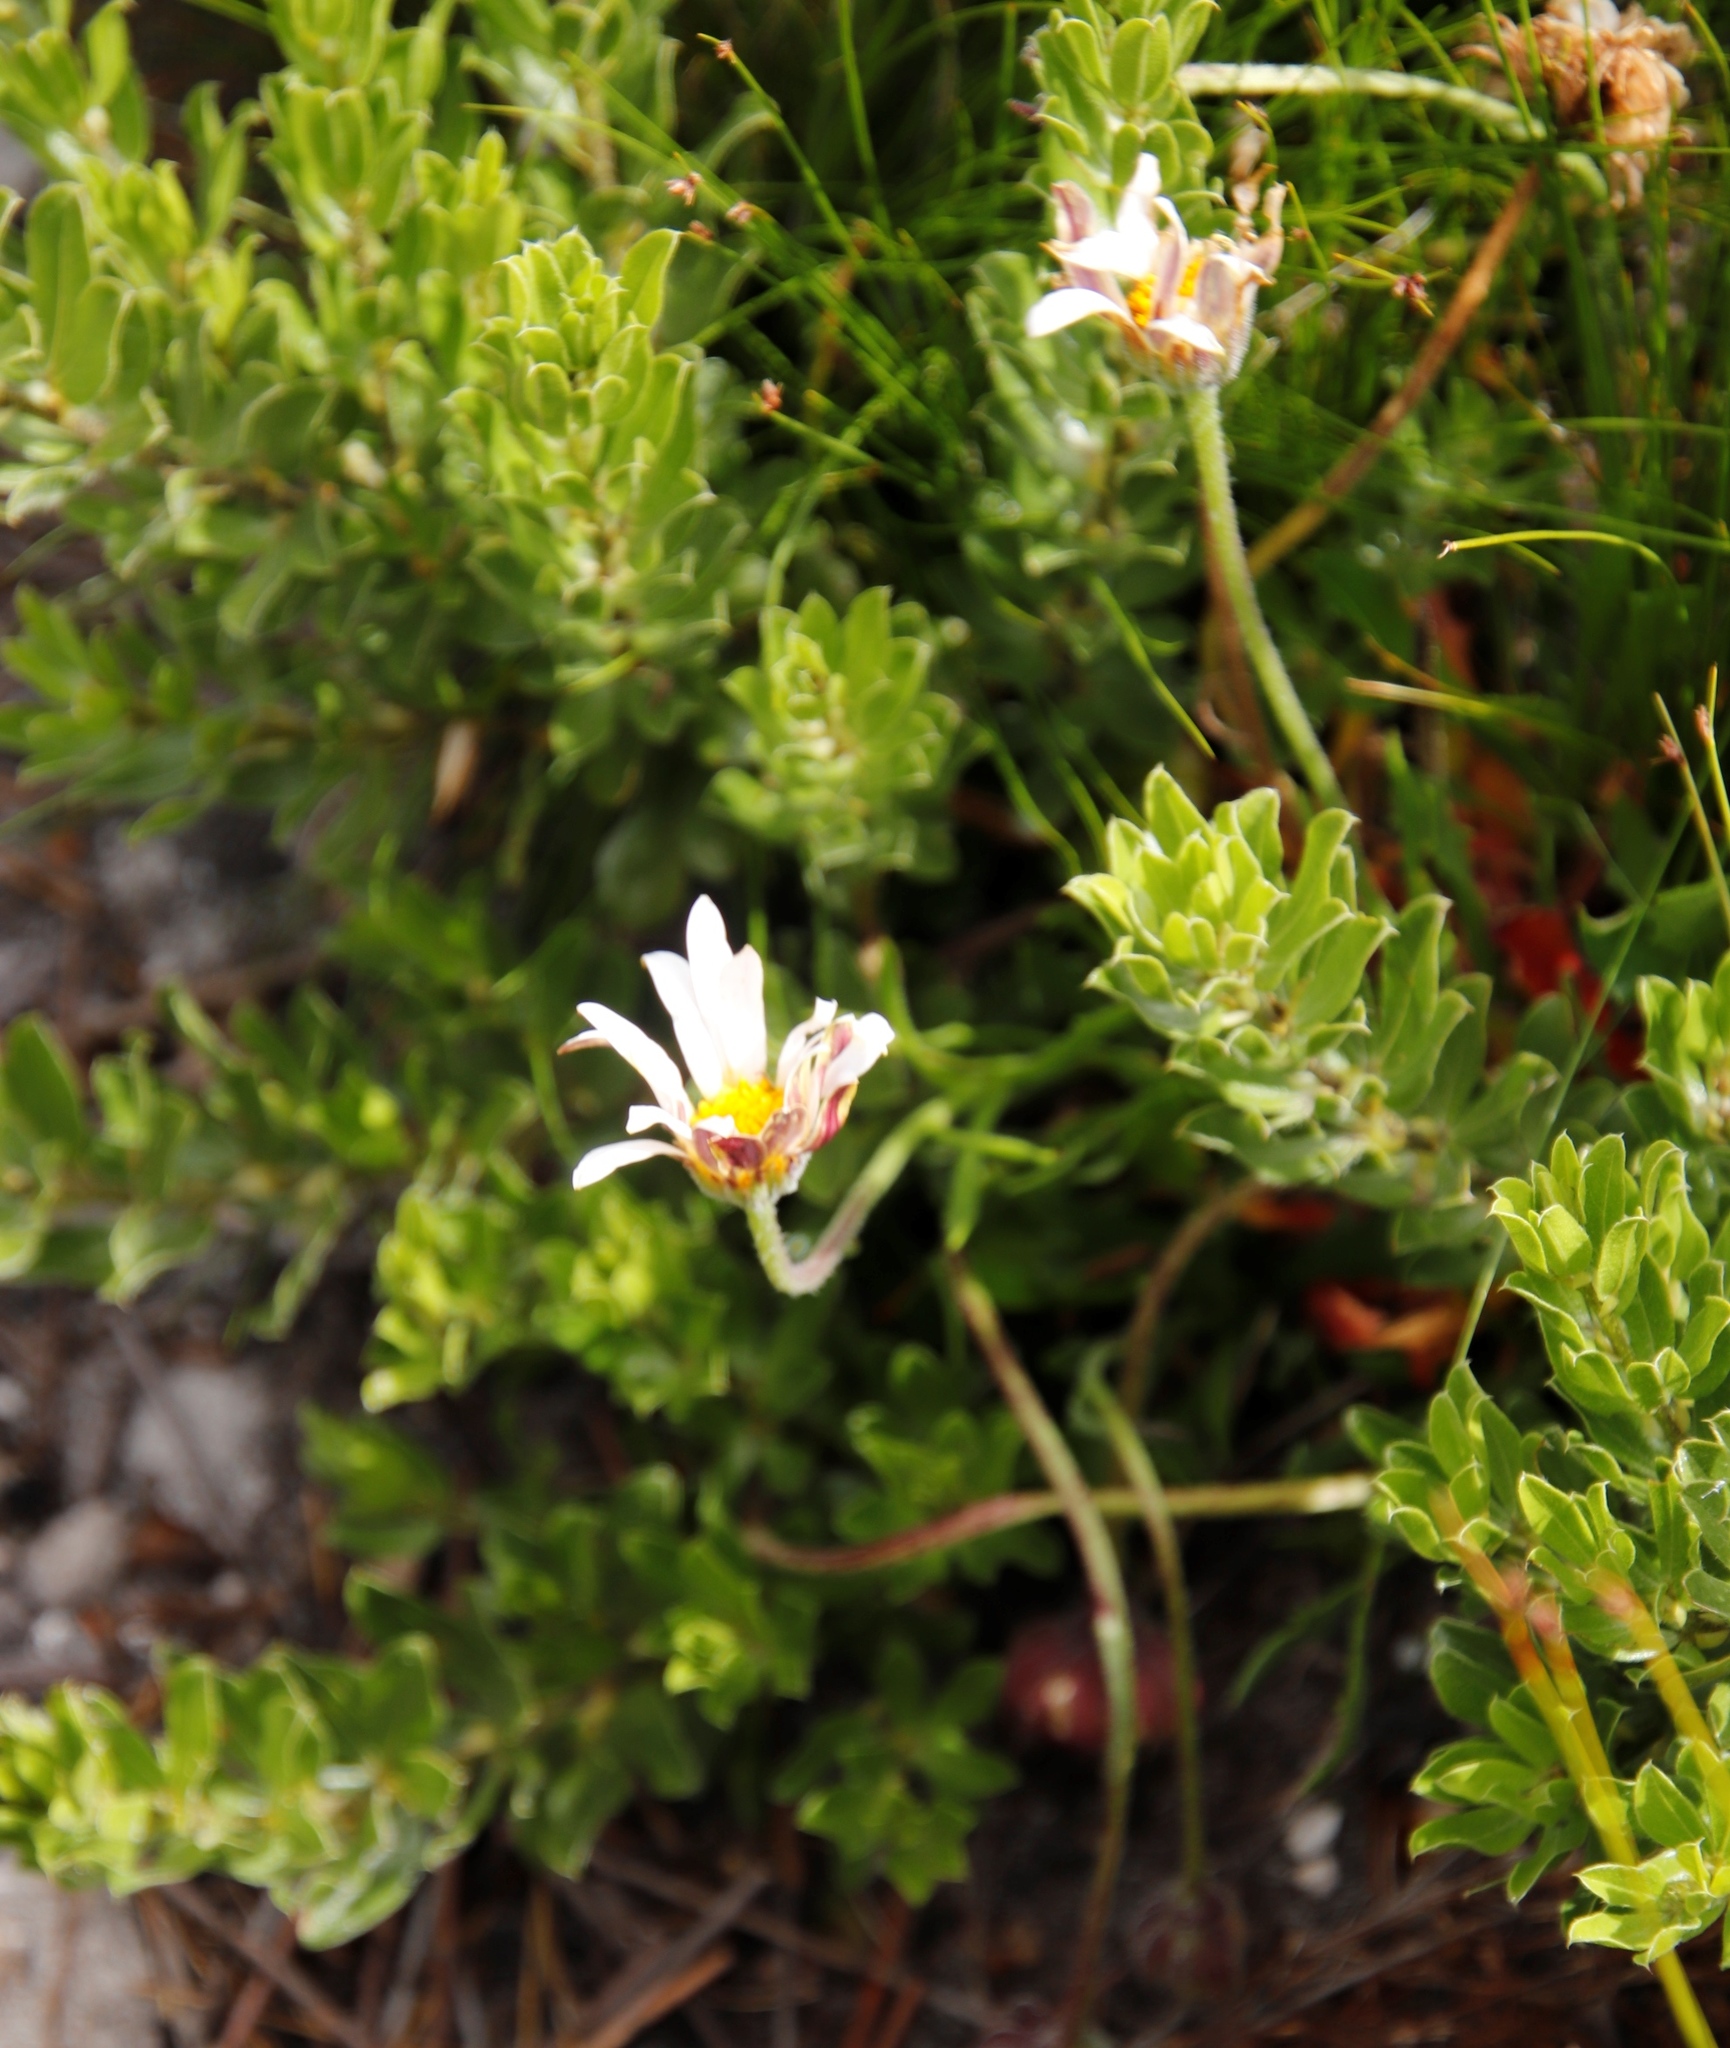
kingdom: Plantae
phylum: Tracheophyta
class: Magnoliopsida
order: Asterales
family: Asteraceae
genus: Dimorphotheca
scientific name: Dimorphotheca montana
